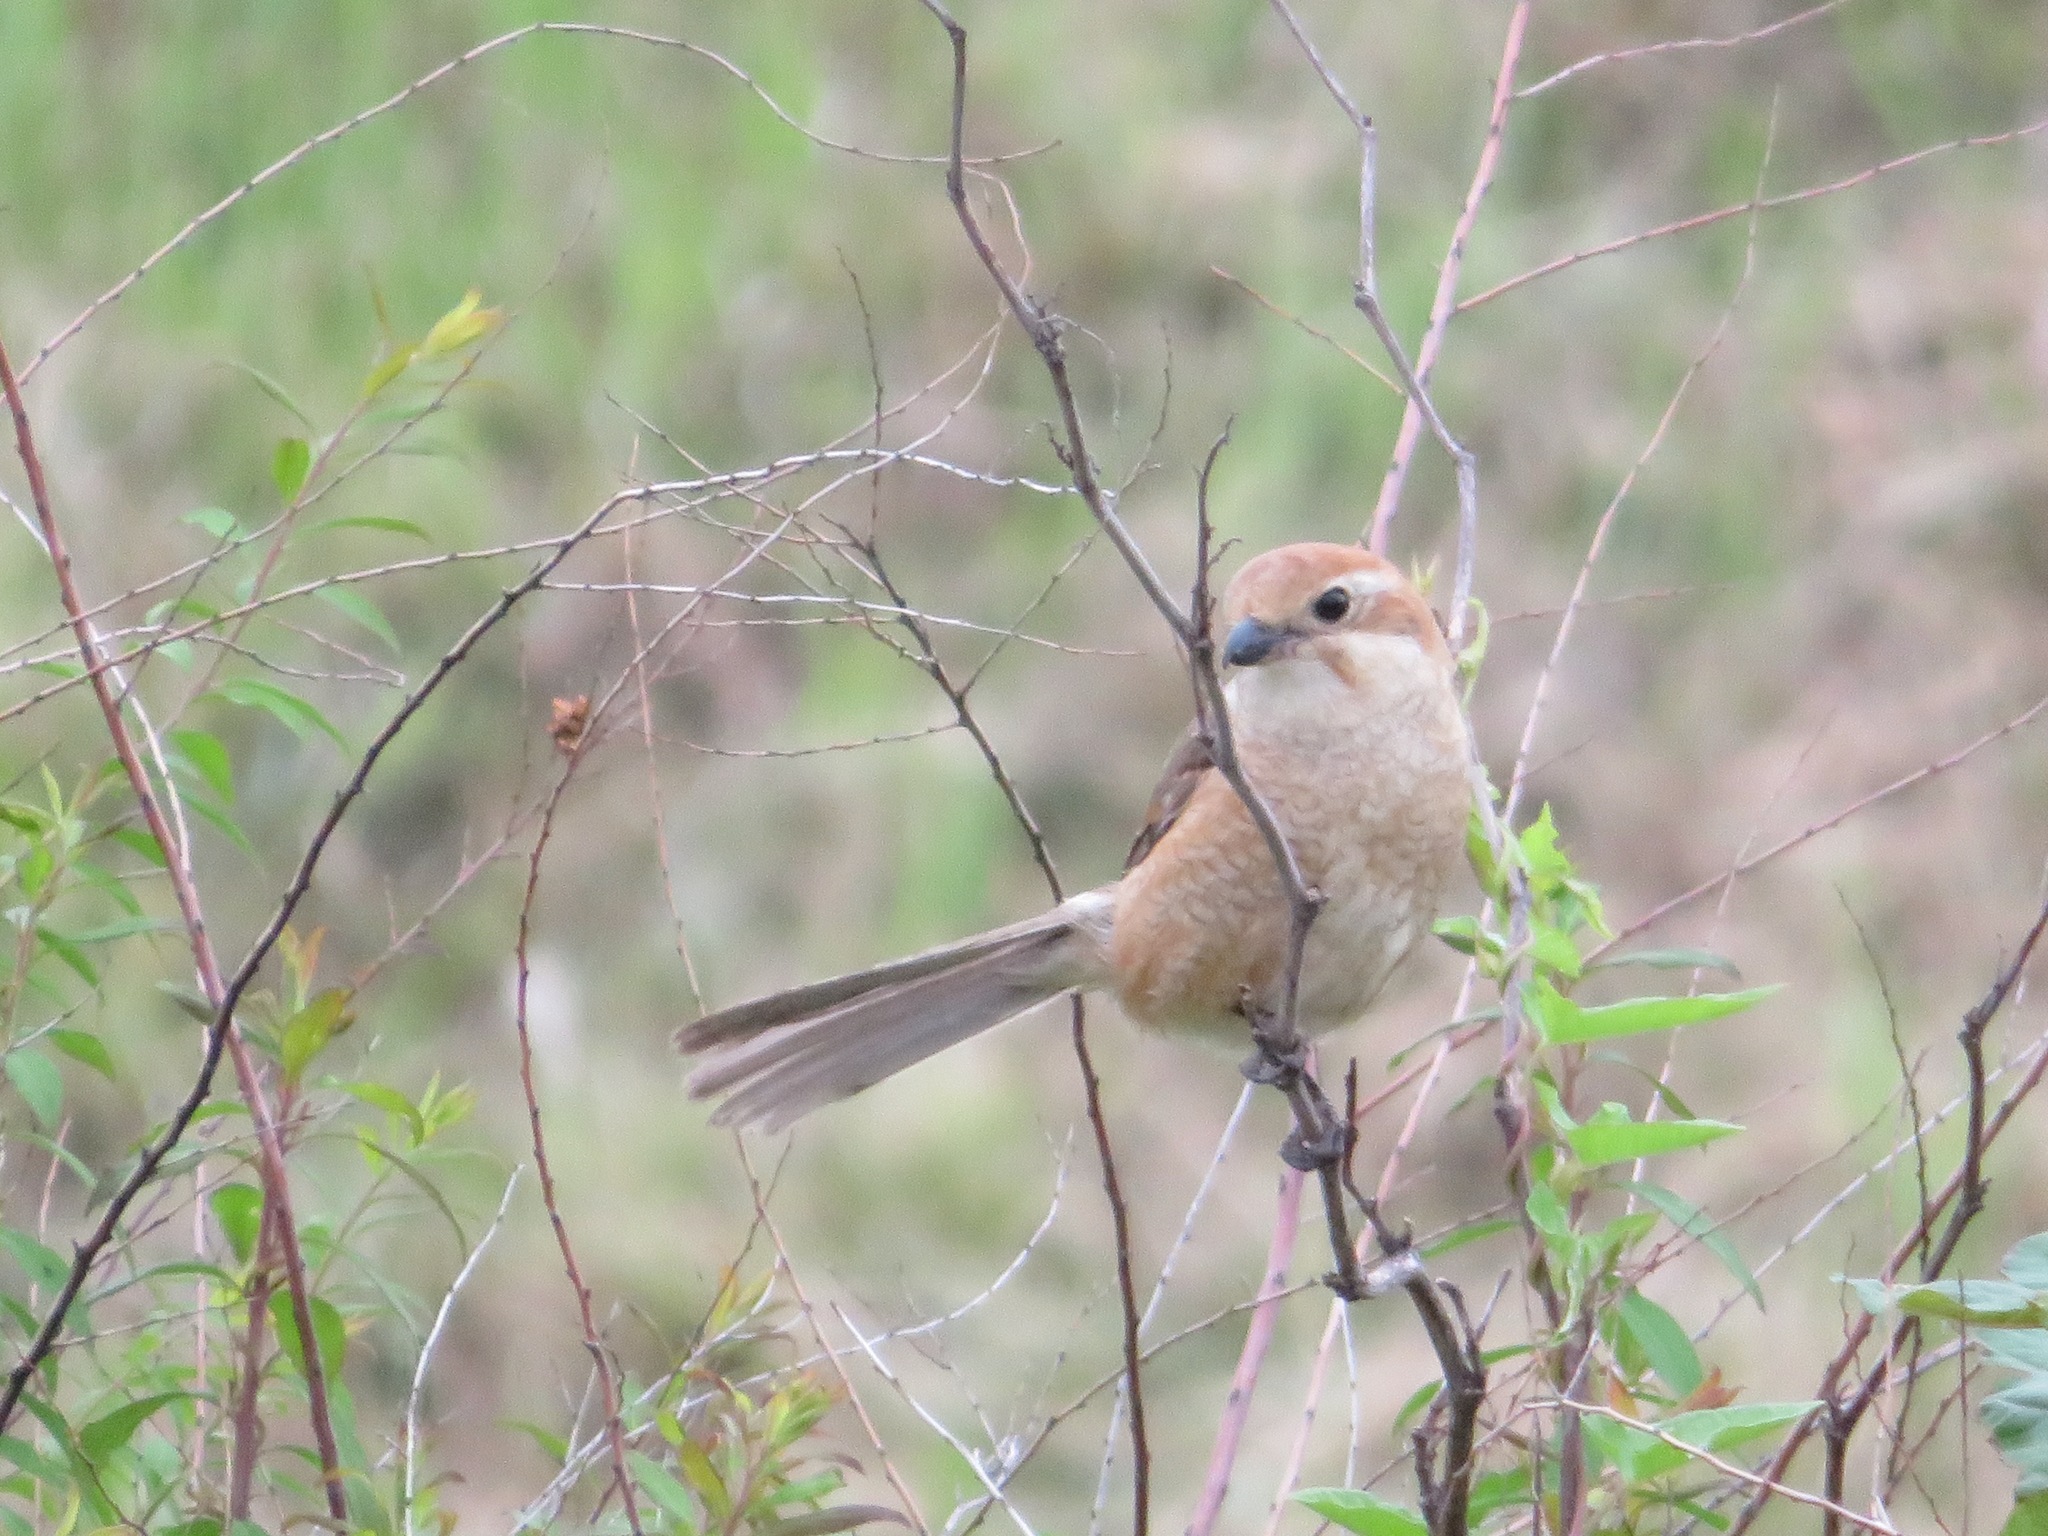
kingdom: Animalia
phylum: Chordata
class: Aves
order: Passeriformes
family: Laniidae
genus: Lanius
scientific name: Lanius bucephalus
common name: Bull-headed shrike
